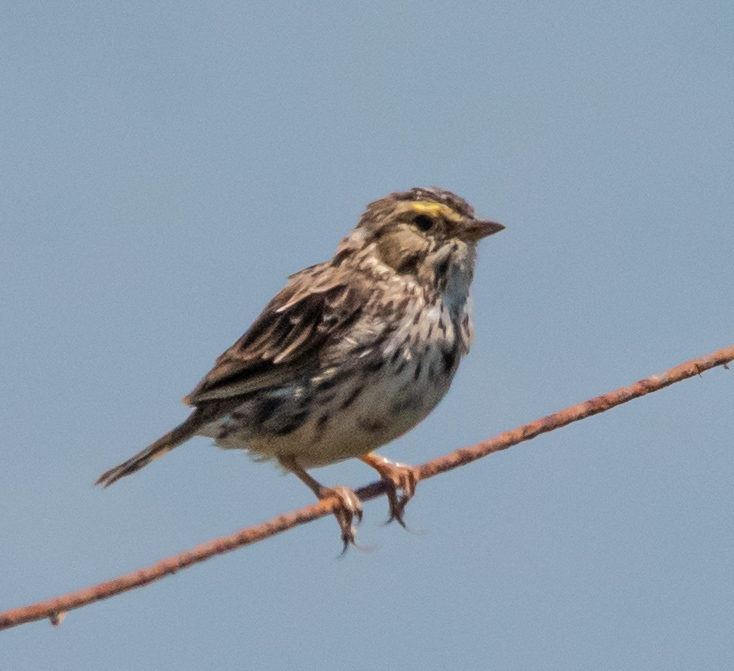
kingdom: Animalia
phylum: Chordata
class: Aves
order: Passeriformes
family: Passerellidae
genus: Passerculus
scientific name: Passerculus sandwichensis
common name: Savannah sparrow
